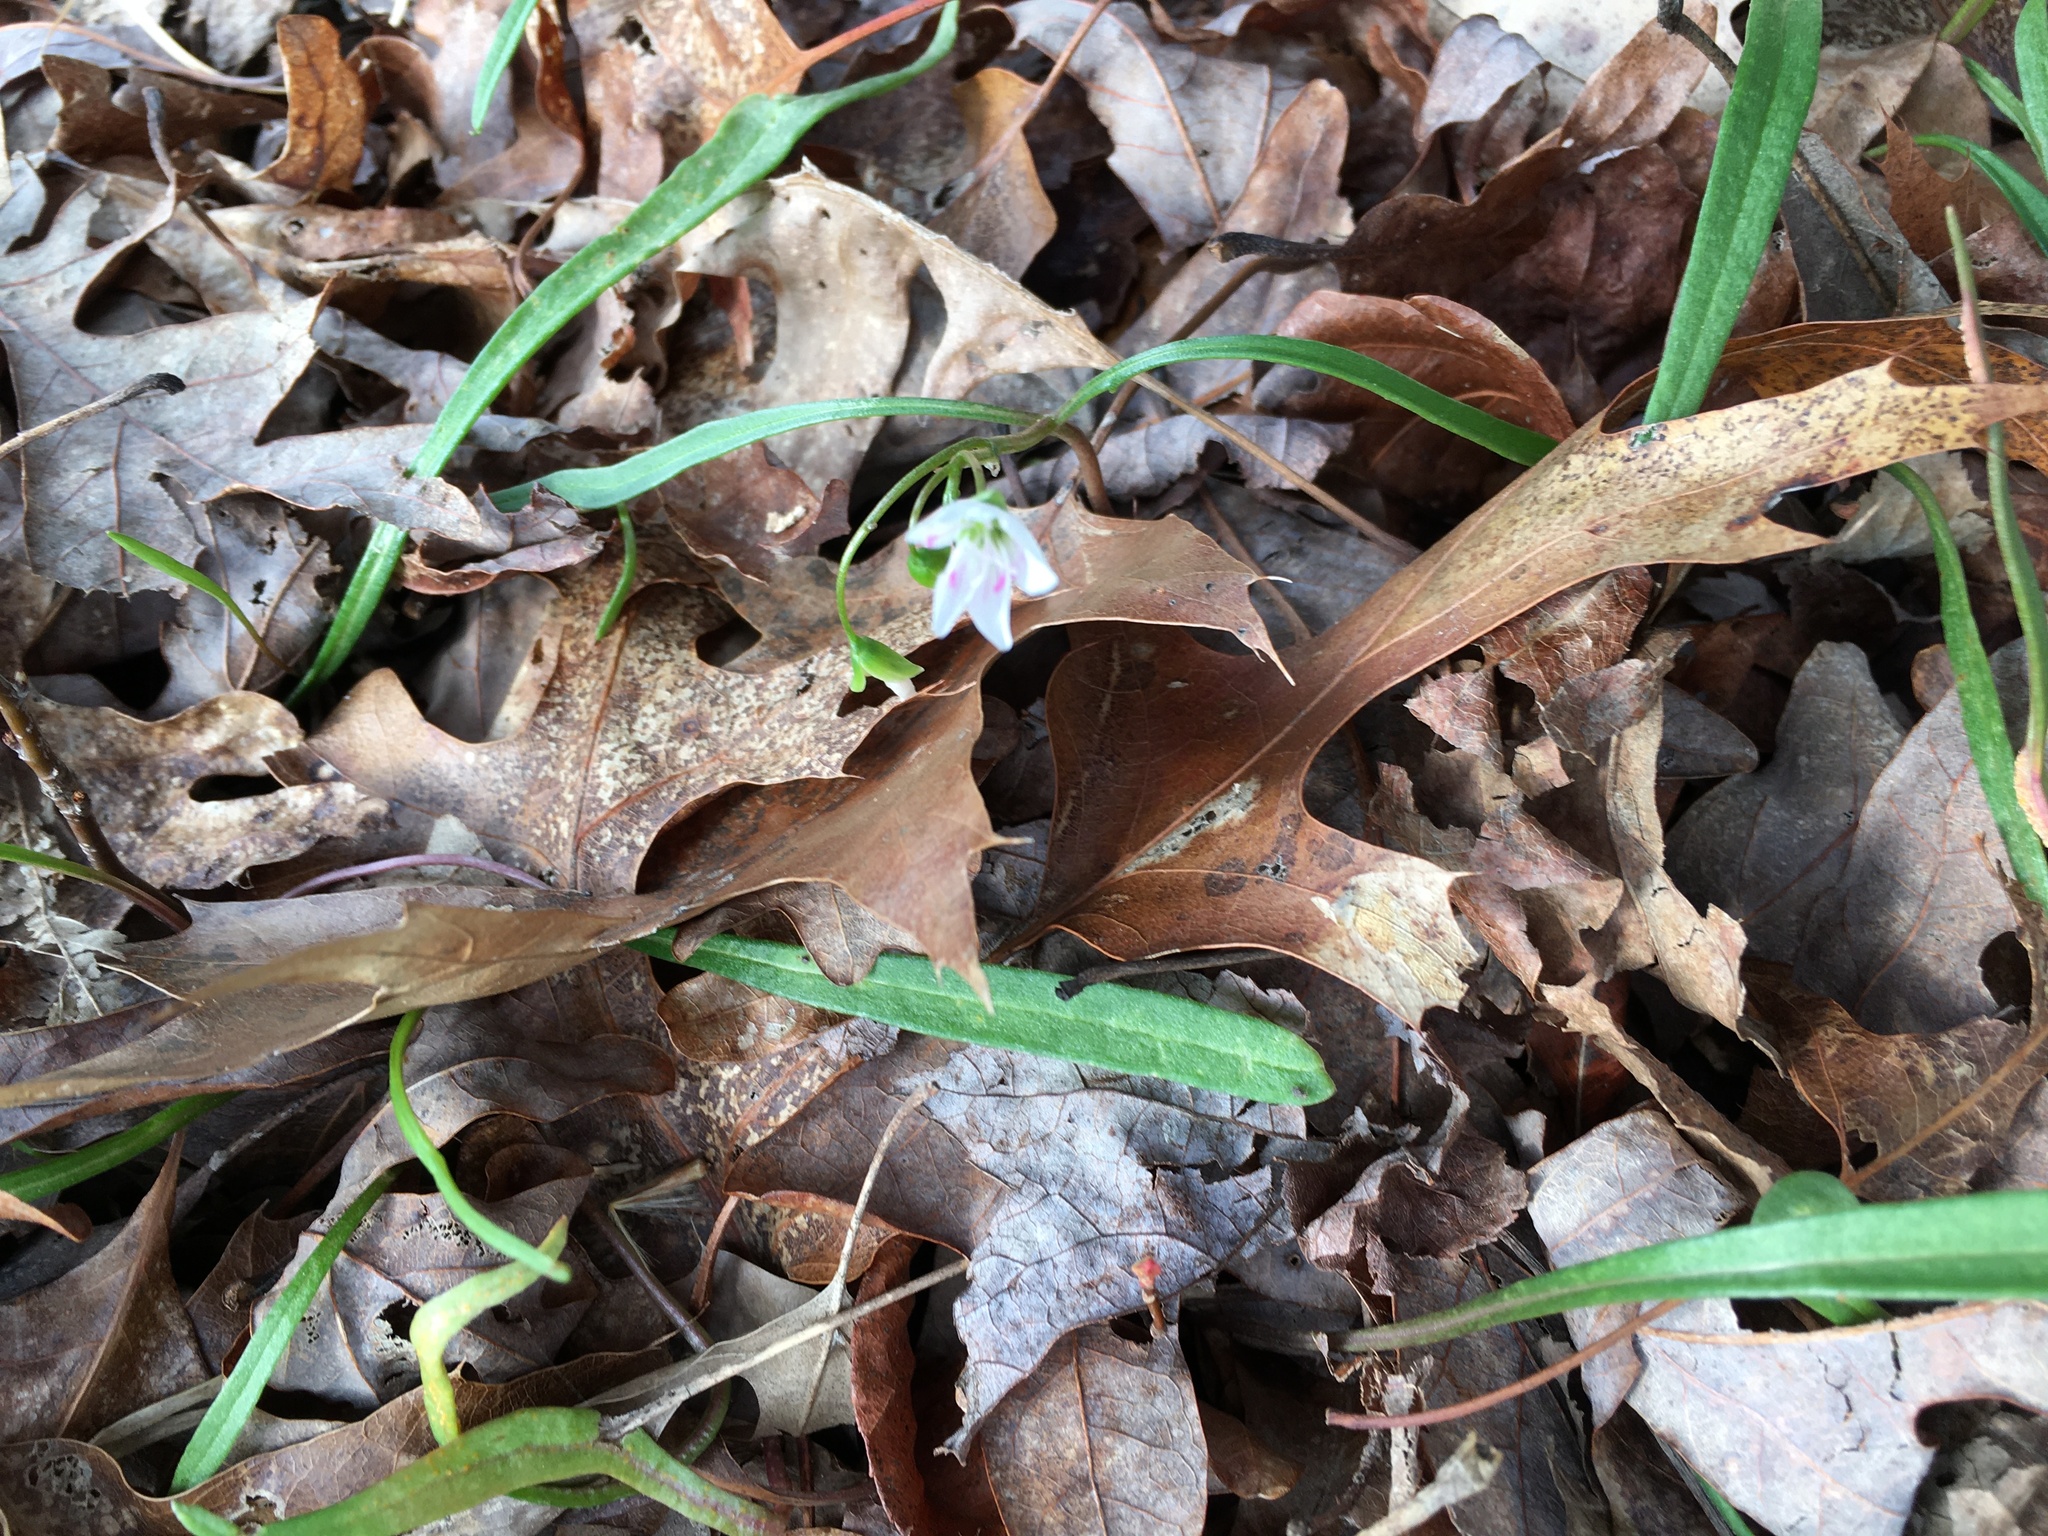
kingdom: Plantae
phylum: Tracheophyta
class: Magnoliopsida
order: Caryophyllales
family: Montiaceae
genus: Claytonia
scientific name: Claytonia virginica
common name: Virginia springbeauty
